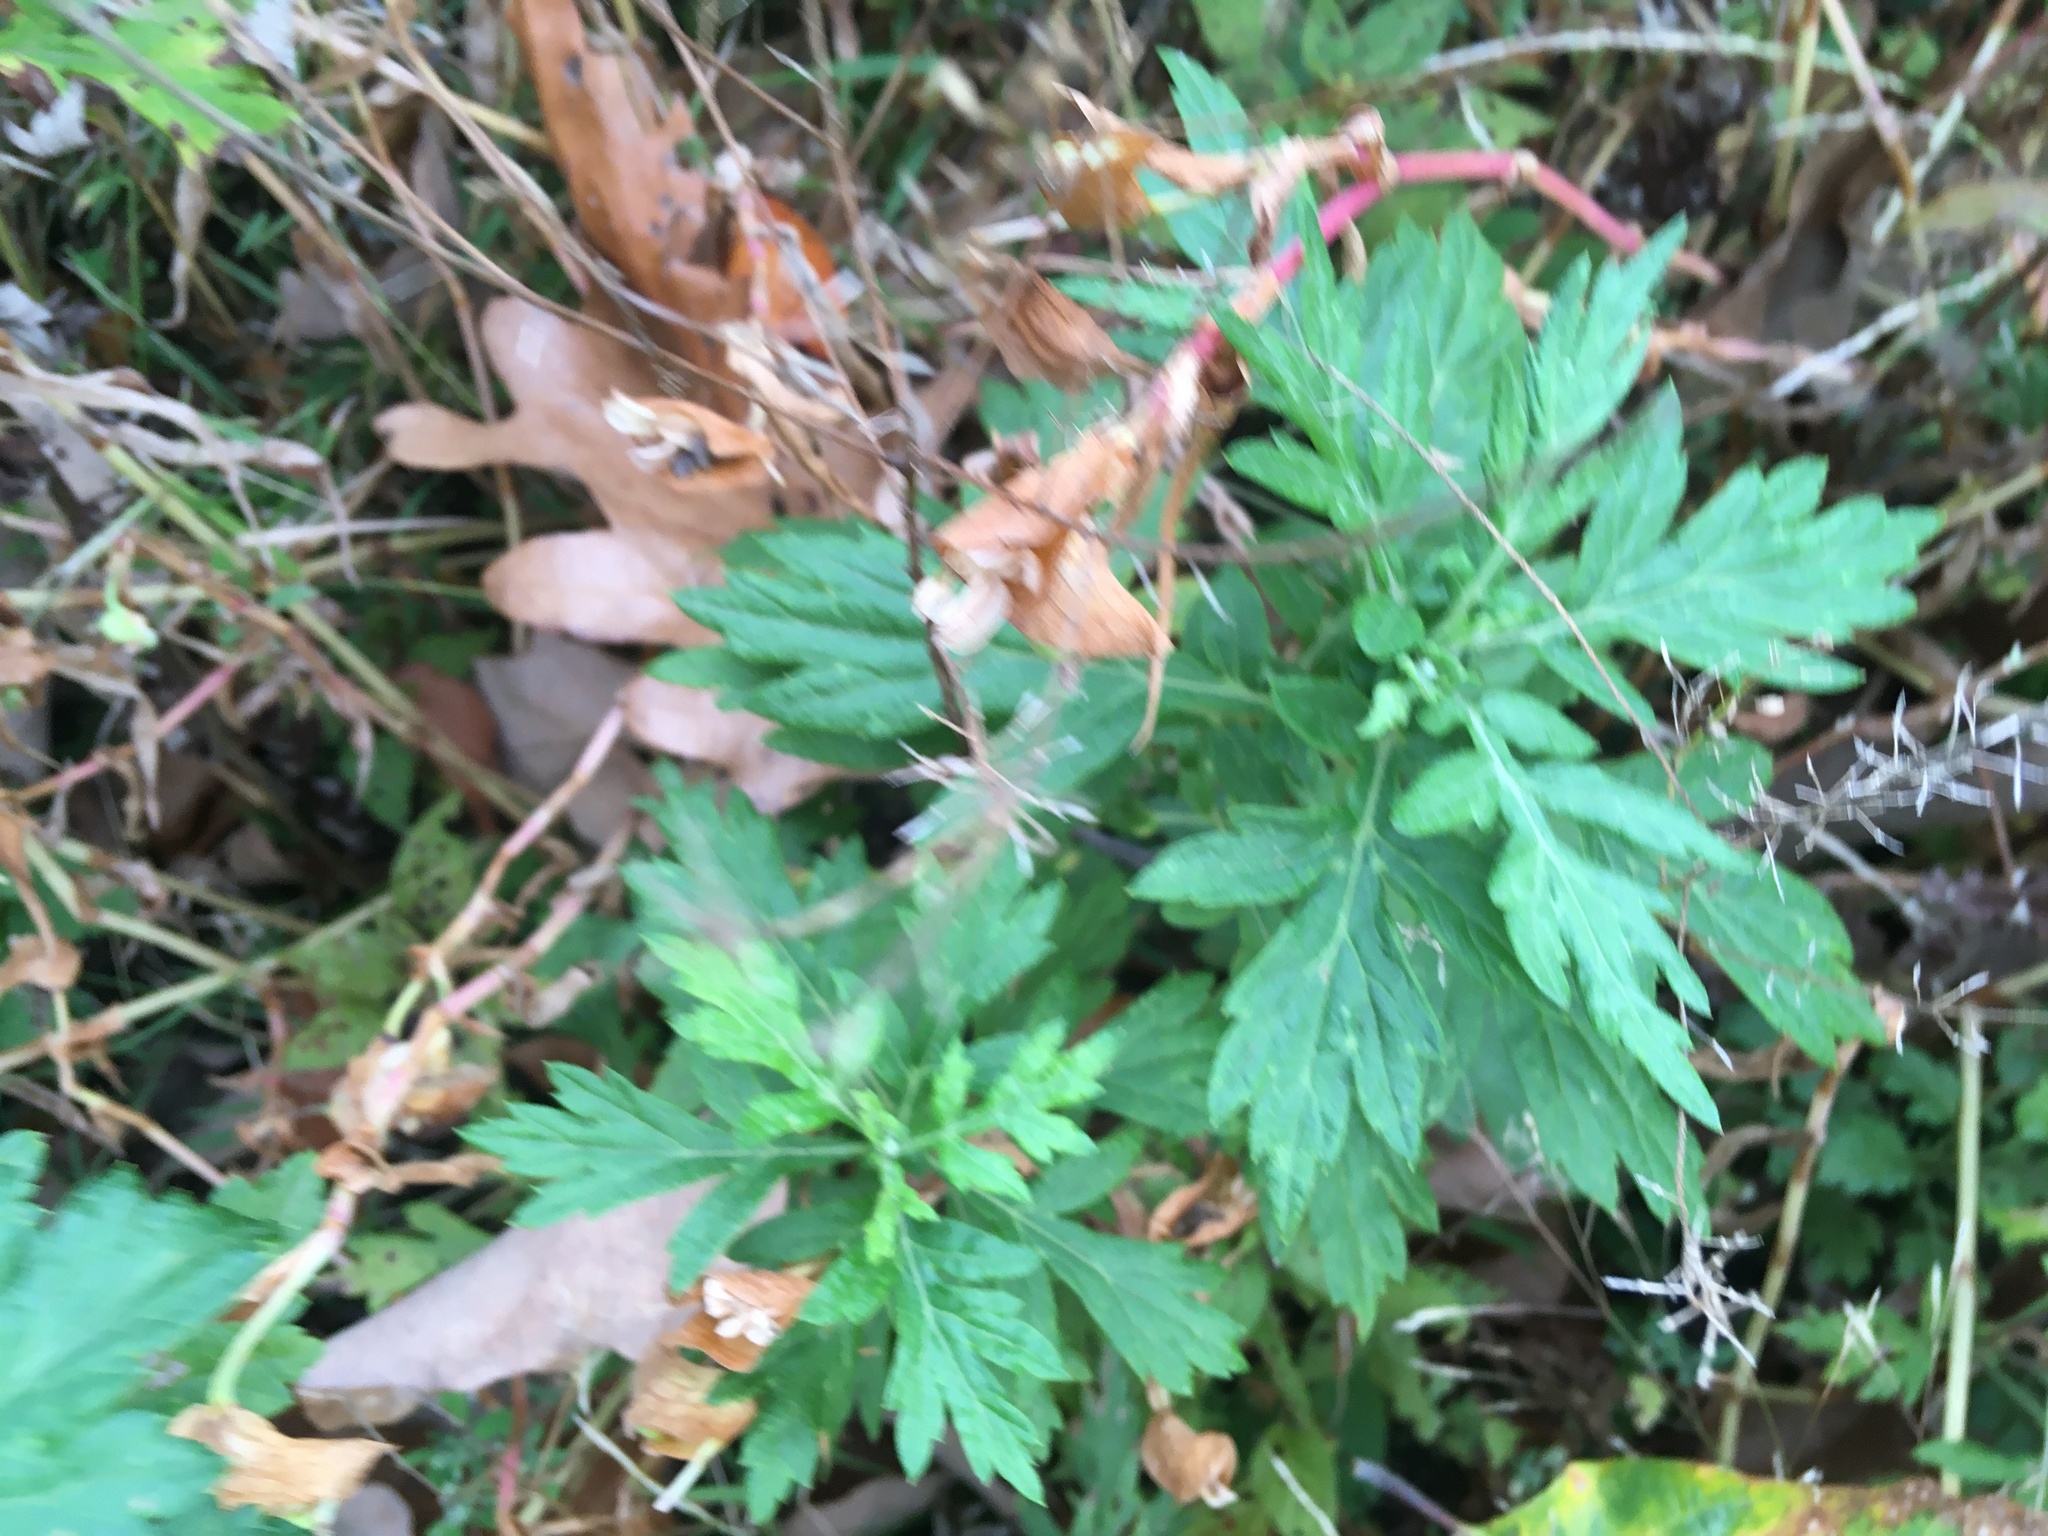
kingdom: Plantae
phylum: Tracheophyta
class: Magnoliopsida
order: Asterales
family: Asteraceae
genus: Artemisia
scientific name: Artemisia vulgaris
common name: Mugwort
